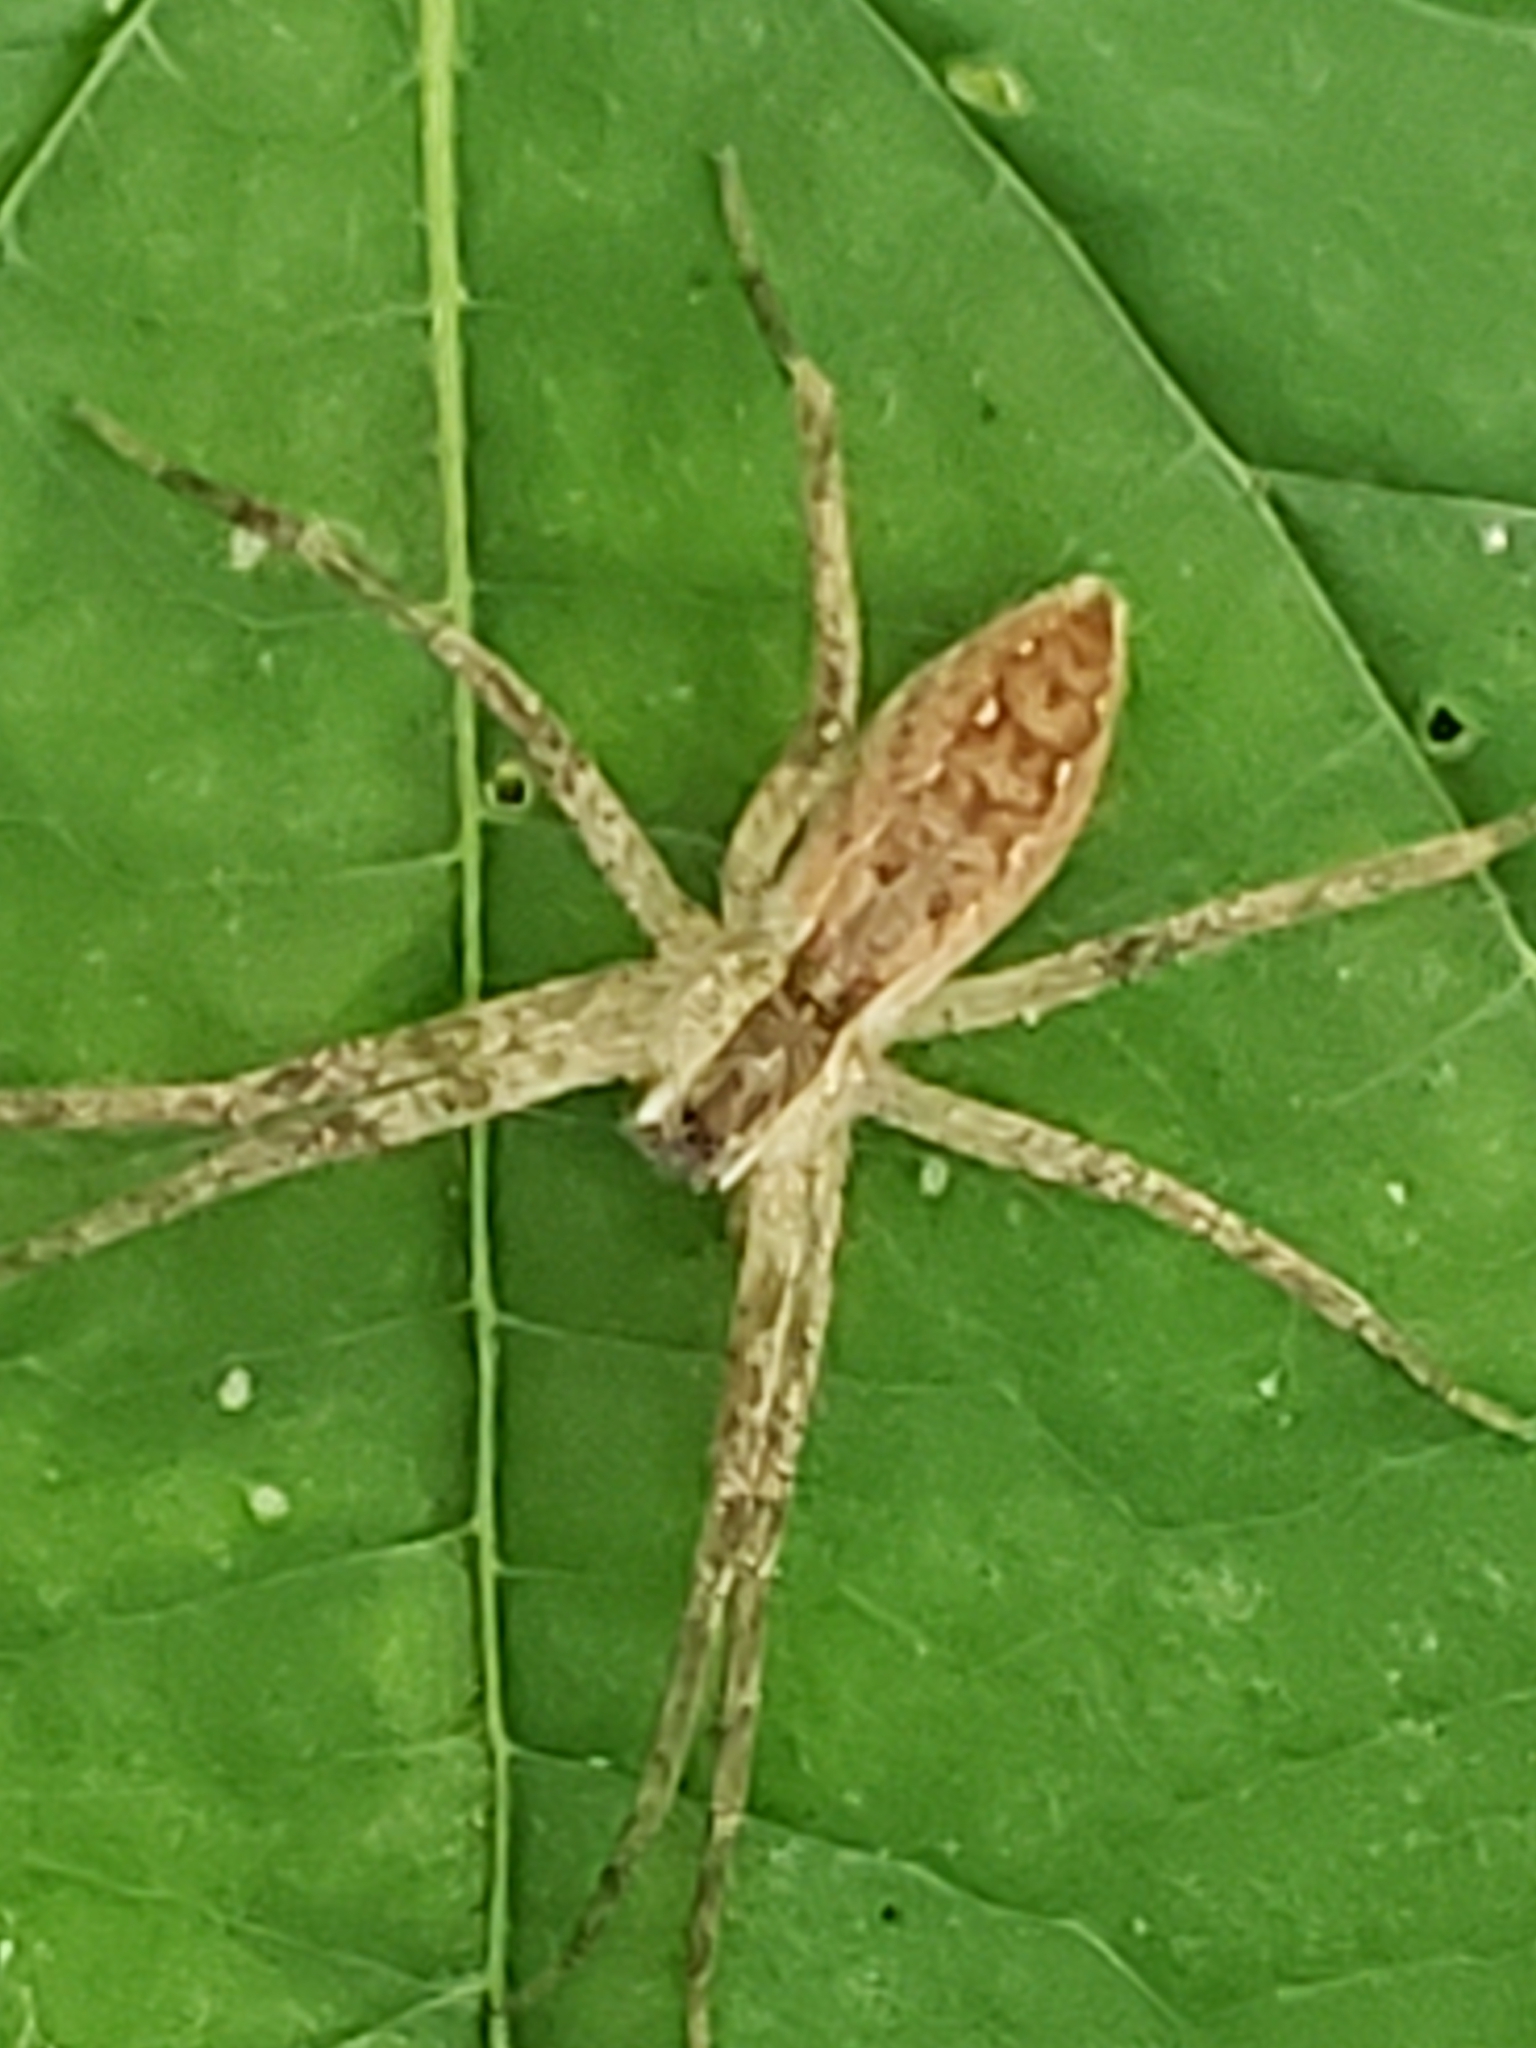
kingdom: Animalia
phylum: Arthropoda
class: Arachnida
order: Araneae
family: Pisauridae
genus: Pisaurina
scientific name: Pisaurina mira
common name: American nursery web spider
